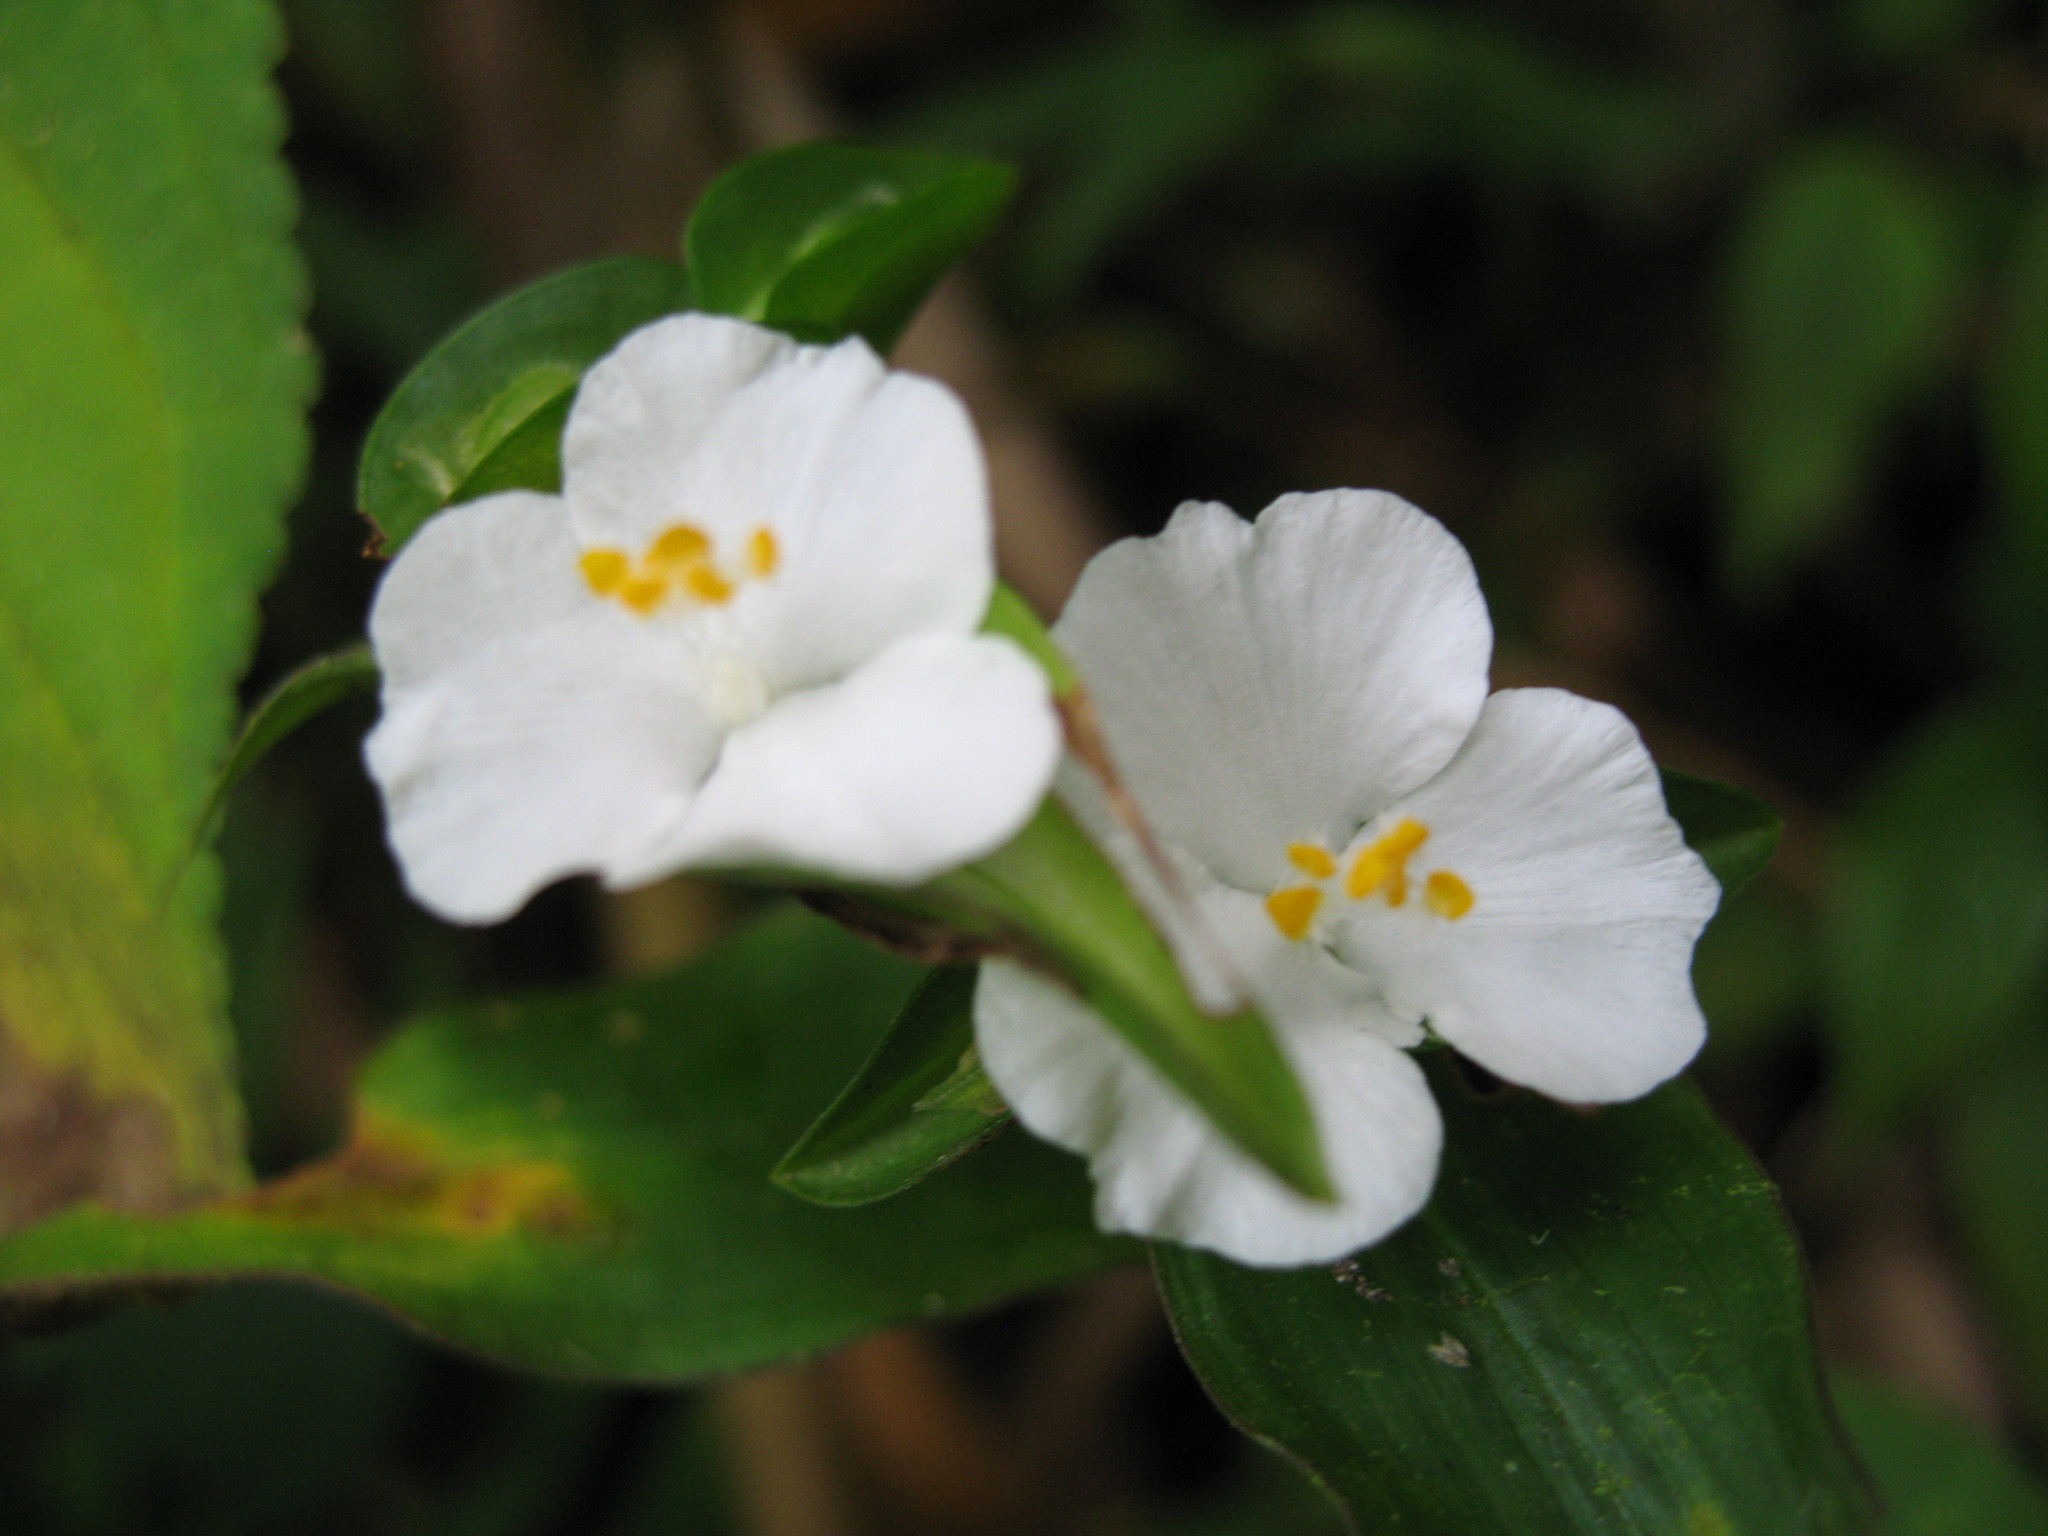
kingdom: Plantae
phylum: Tracheophyta
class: Liliopsida
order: Commelinales
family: Commelinaceae
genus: Tradescantia
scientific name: Tradescantia praetermissa
